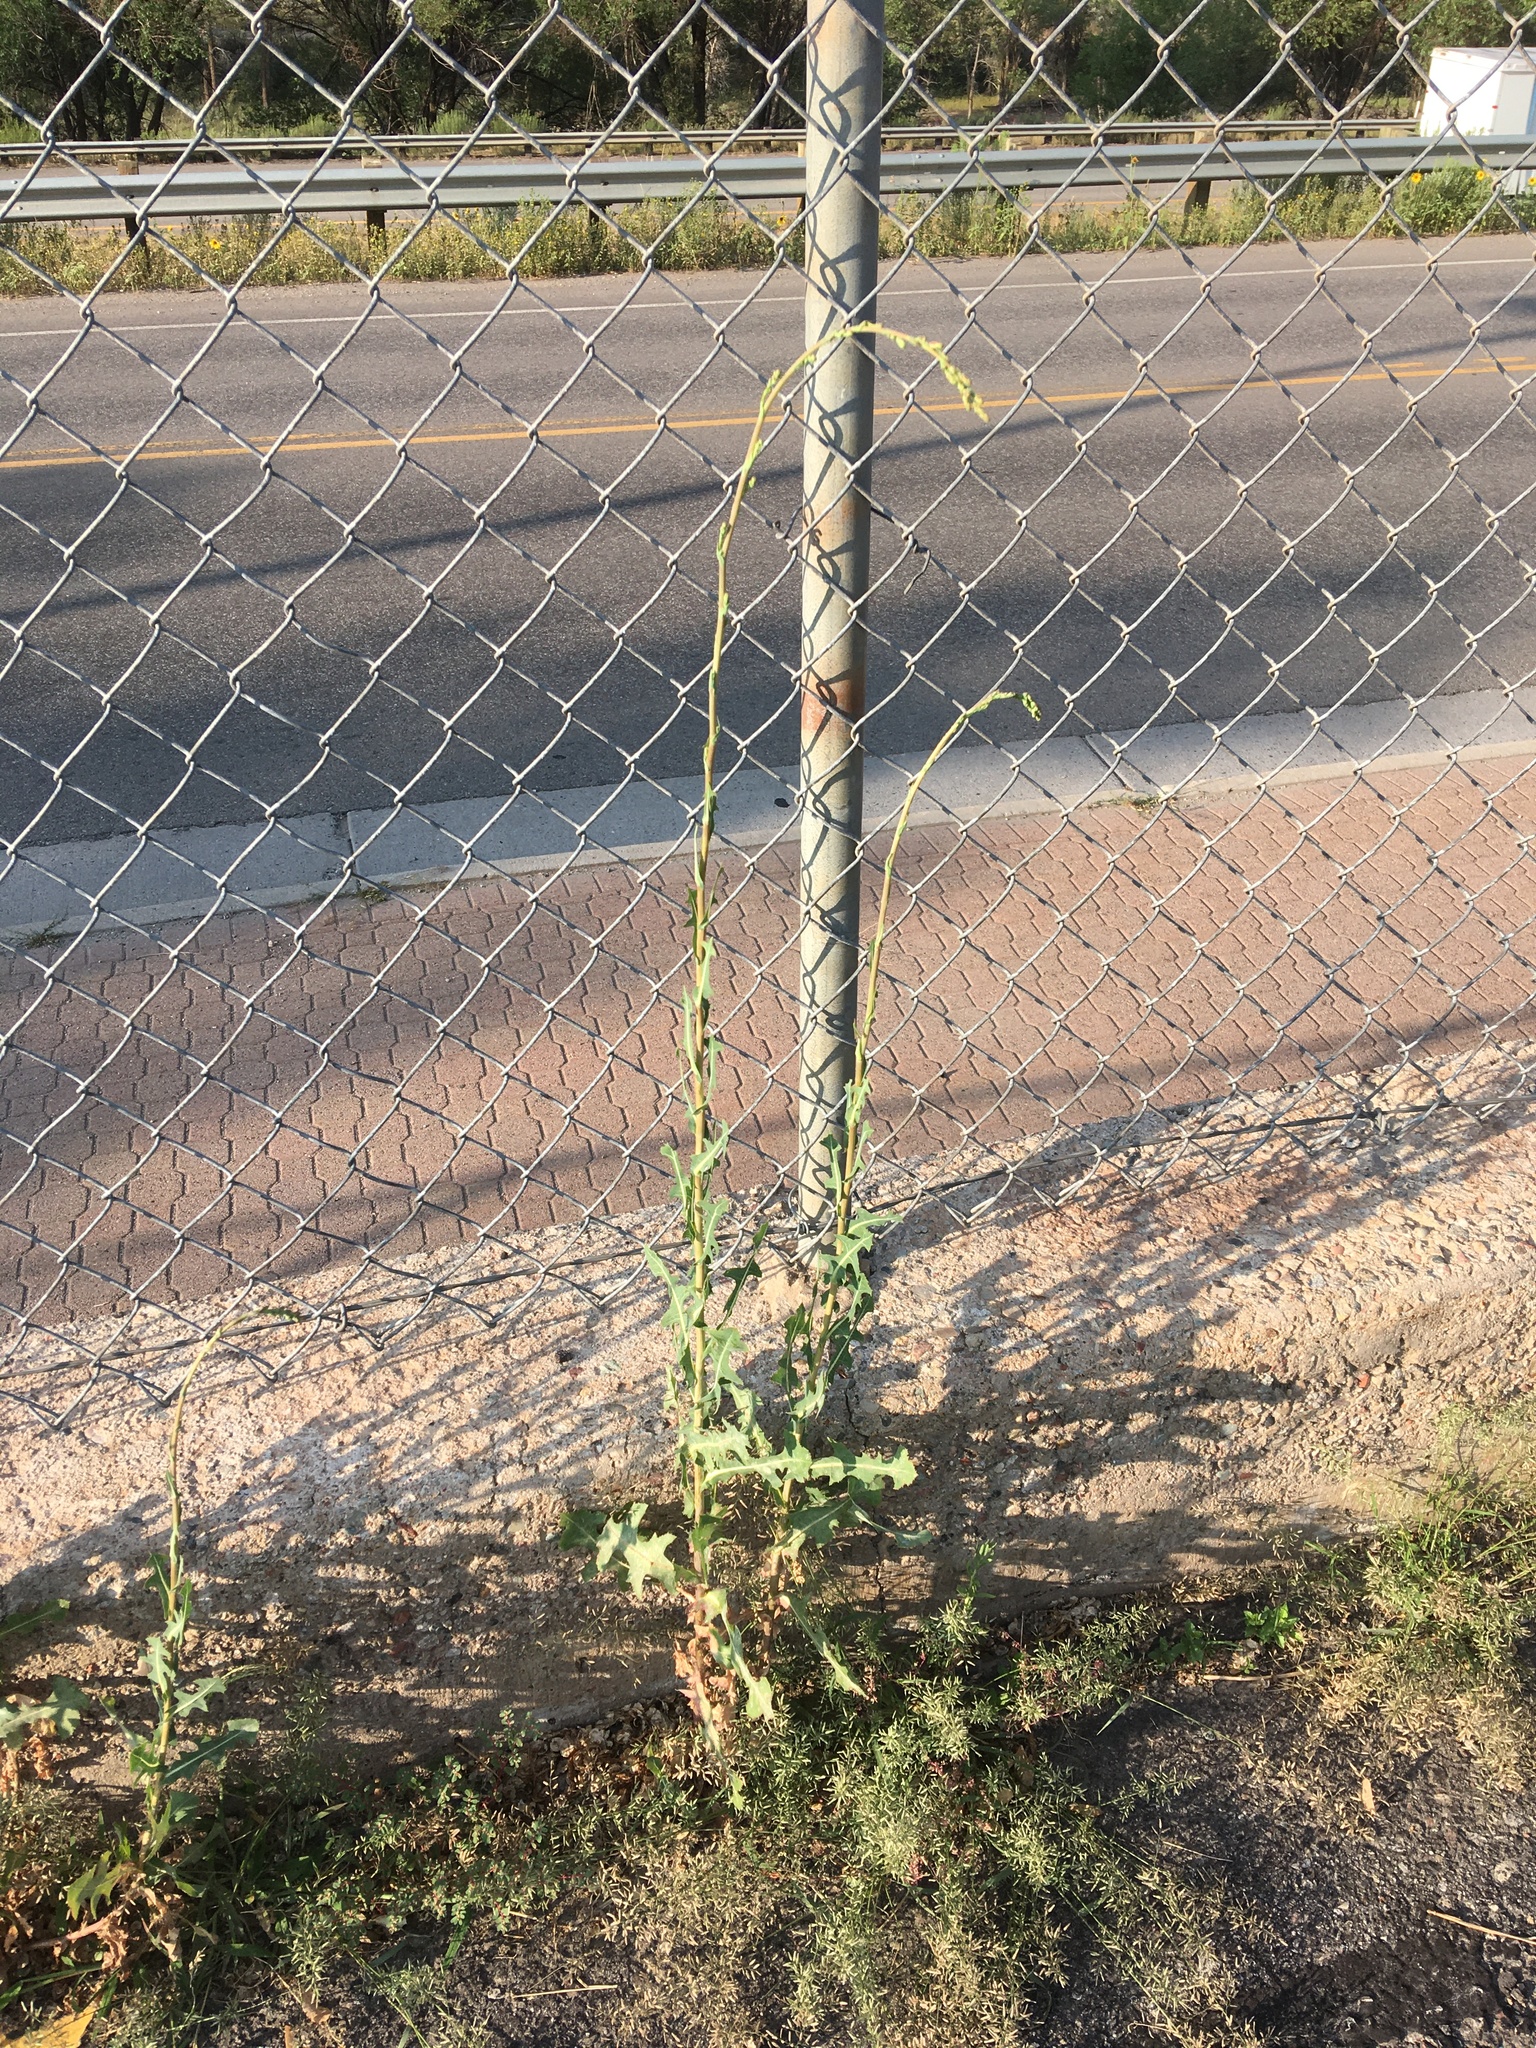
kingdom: Plantae
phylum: Tracheophyta
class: Magnoliopsida
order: Asterales
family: Asteraceae
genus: Lactuca
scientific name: Lactuca serriola
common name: Prickly lettuce
